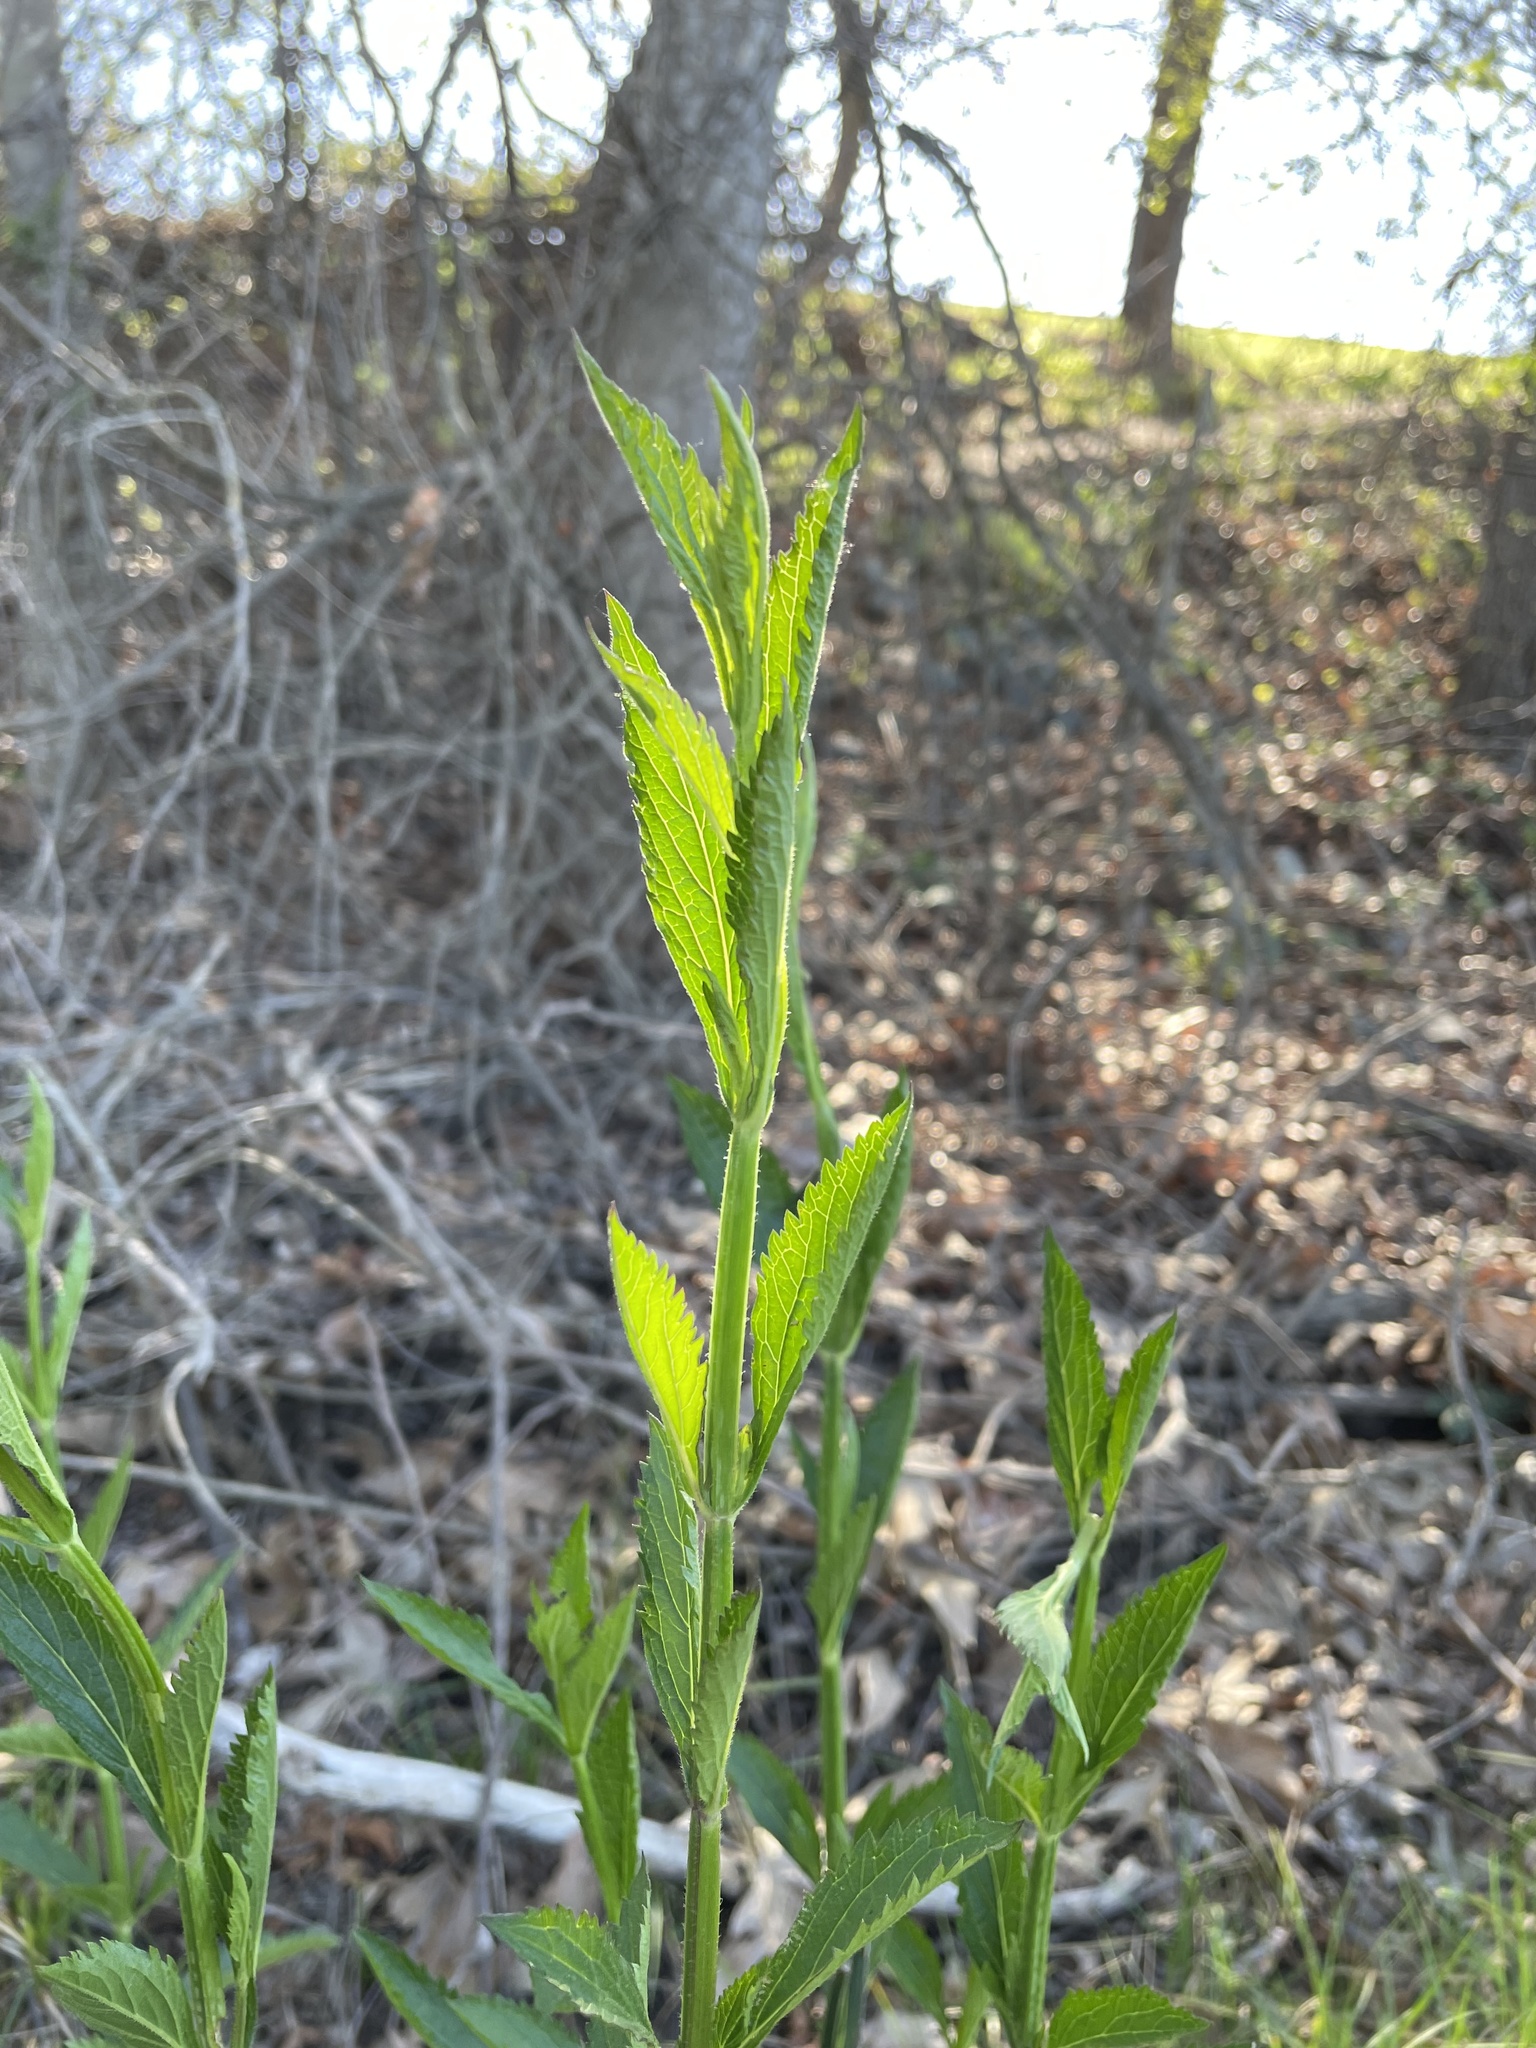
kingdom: Plantae
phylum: Tracheophyta
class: Magnoliopsida
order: Lamiales
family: Verbenaceae
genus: Verbena
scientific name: Verbena
